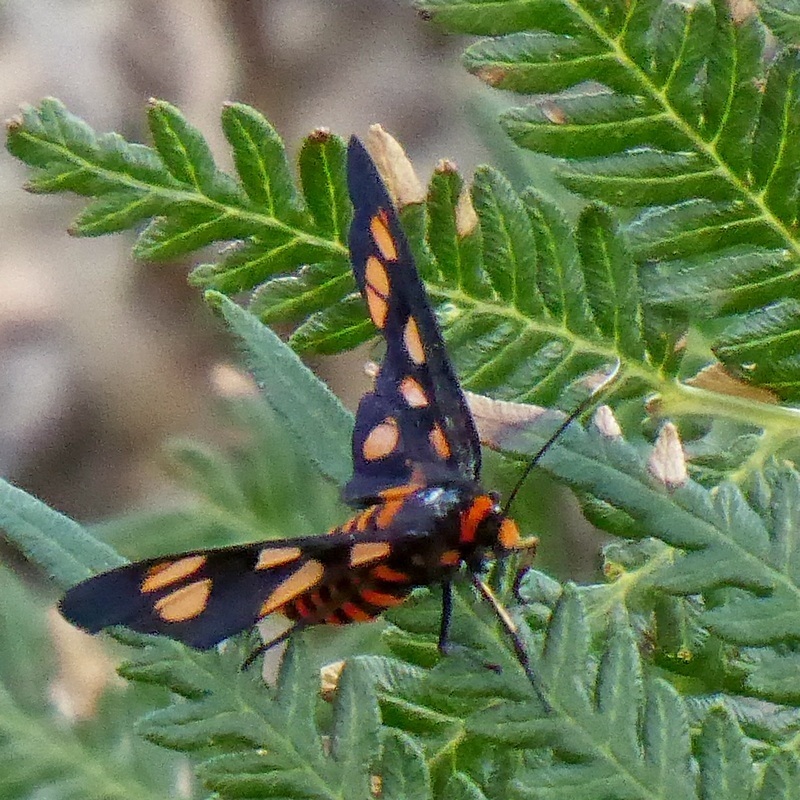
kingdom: Animalia
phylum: Arthropoda
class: Insecta
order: Lepidoptera
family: Erebidae
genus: Amata
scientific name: Amata nigriceps
